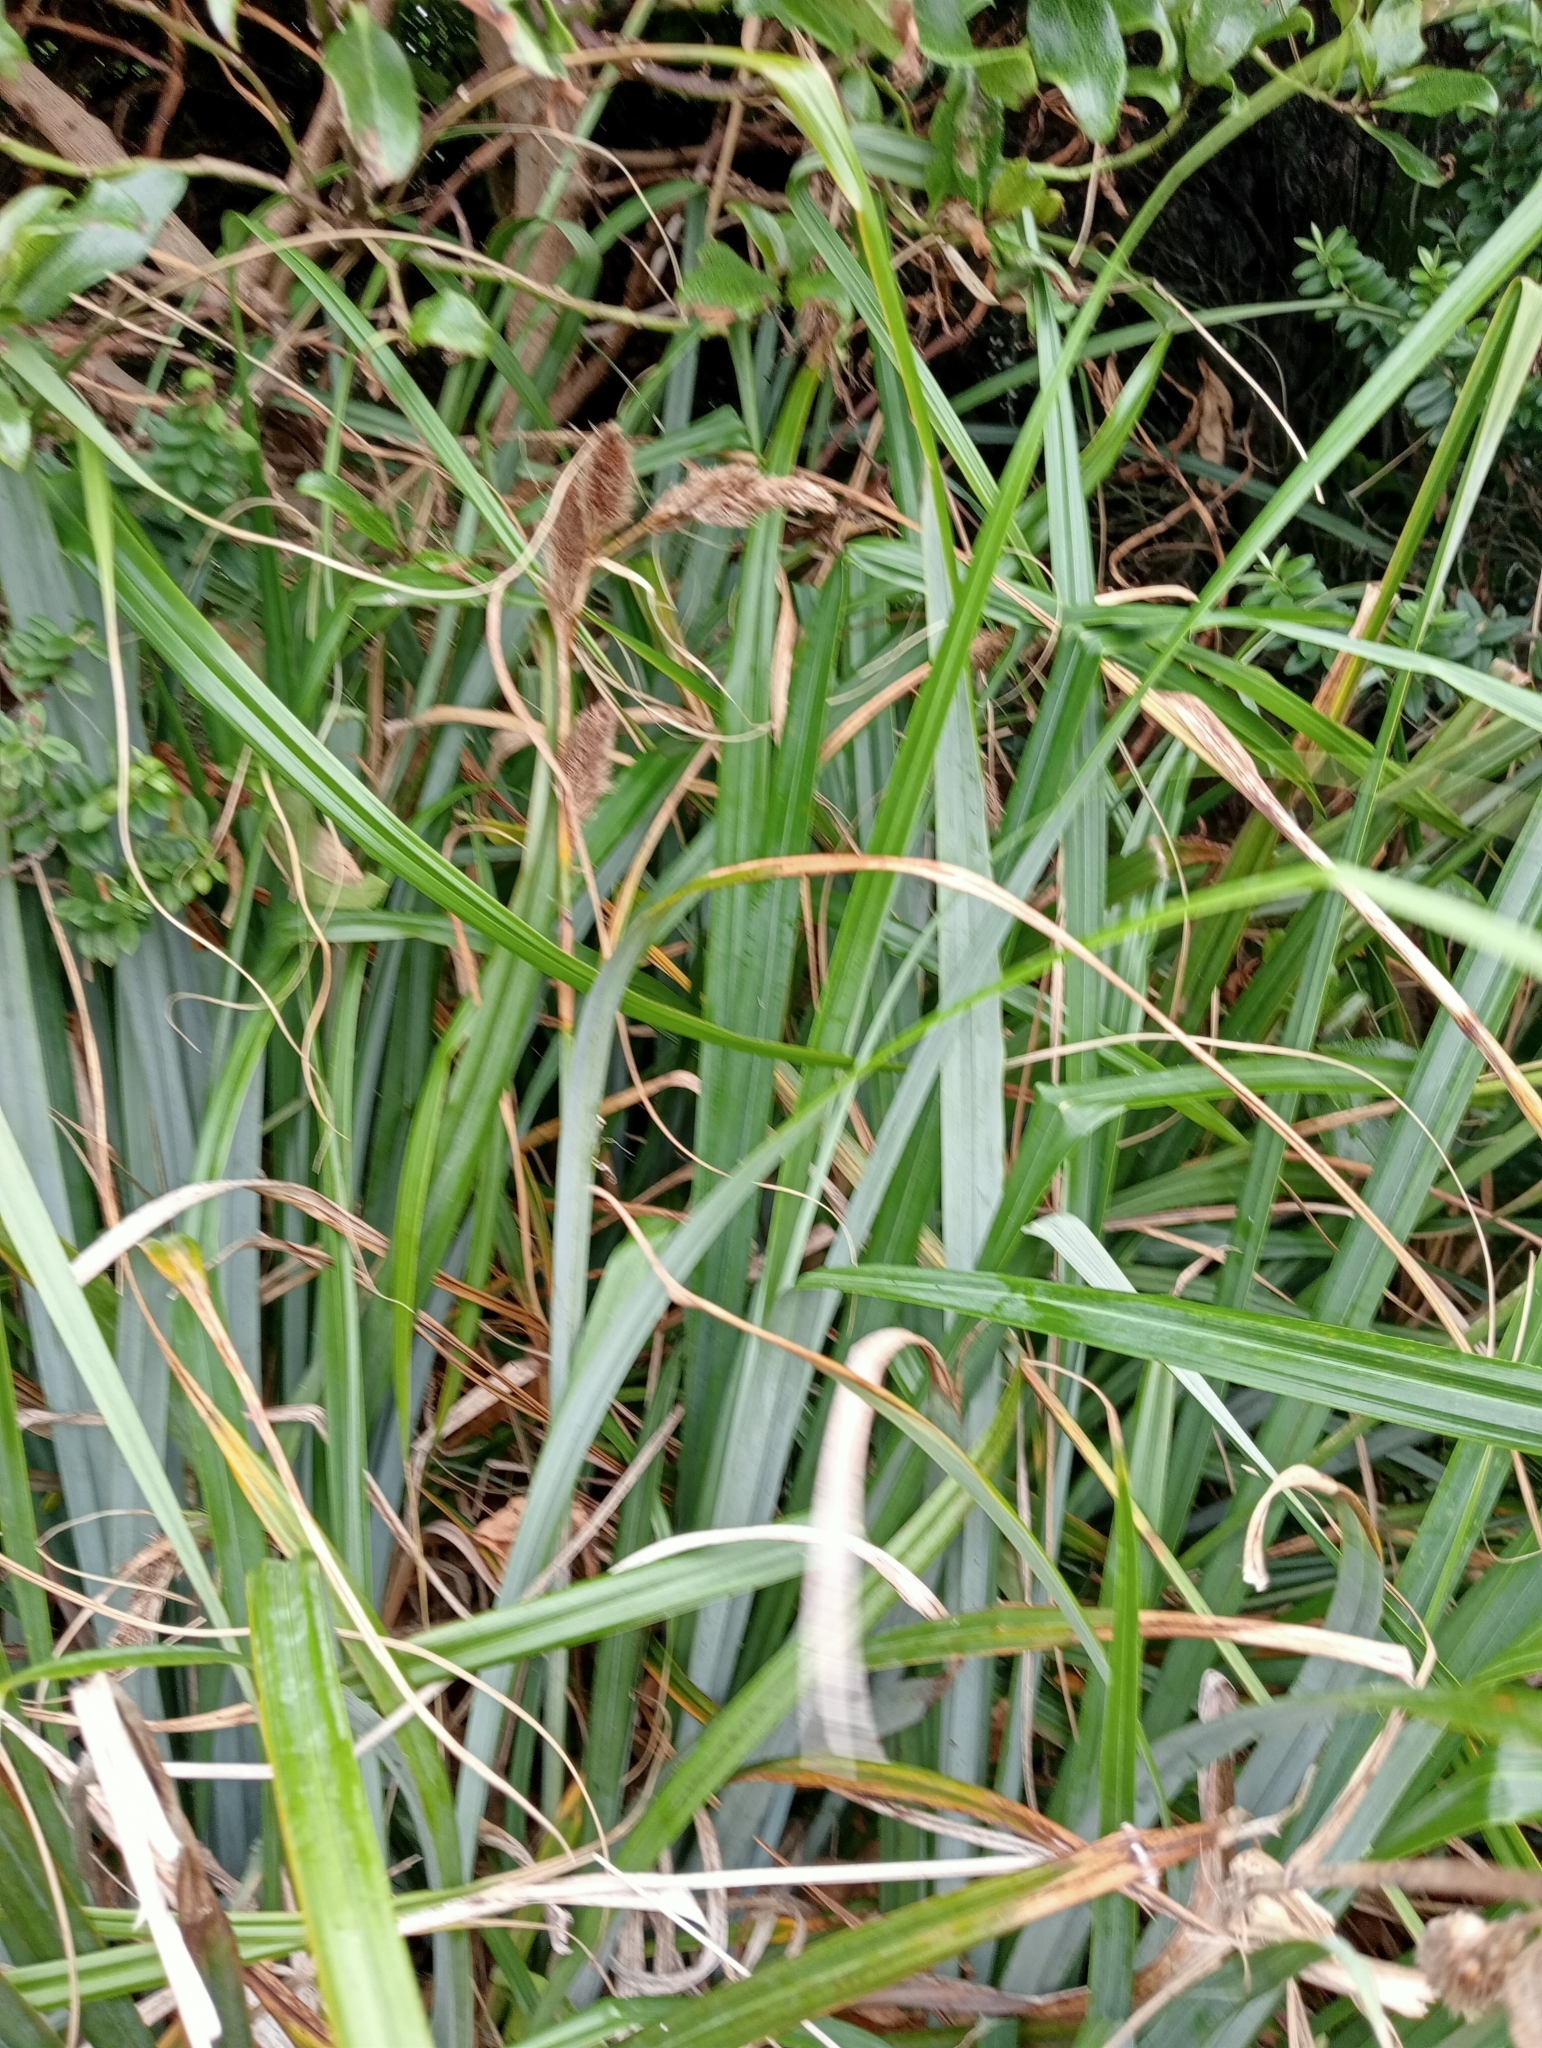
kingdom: Plantae
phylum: Tracheophyta
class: Liliopsida
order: Poales
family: Cyperaceae
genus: Carex
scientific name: Carex trifida
